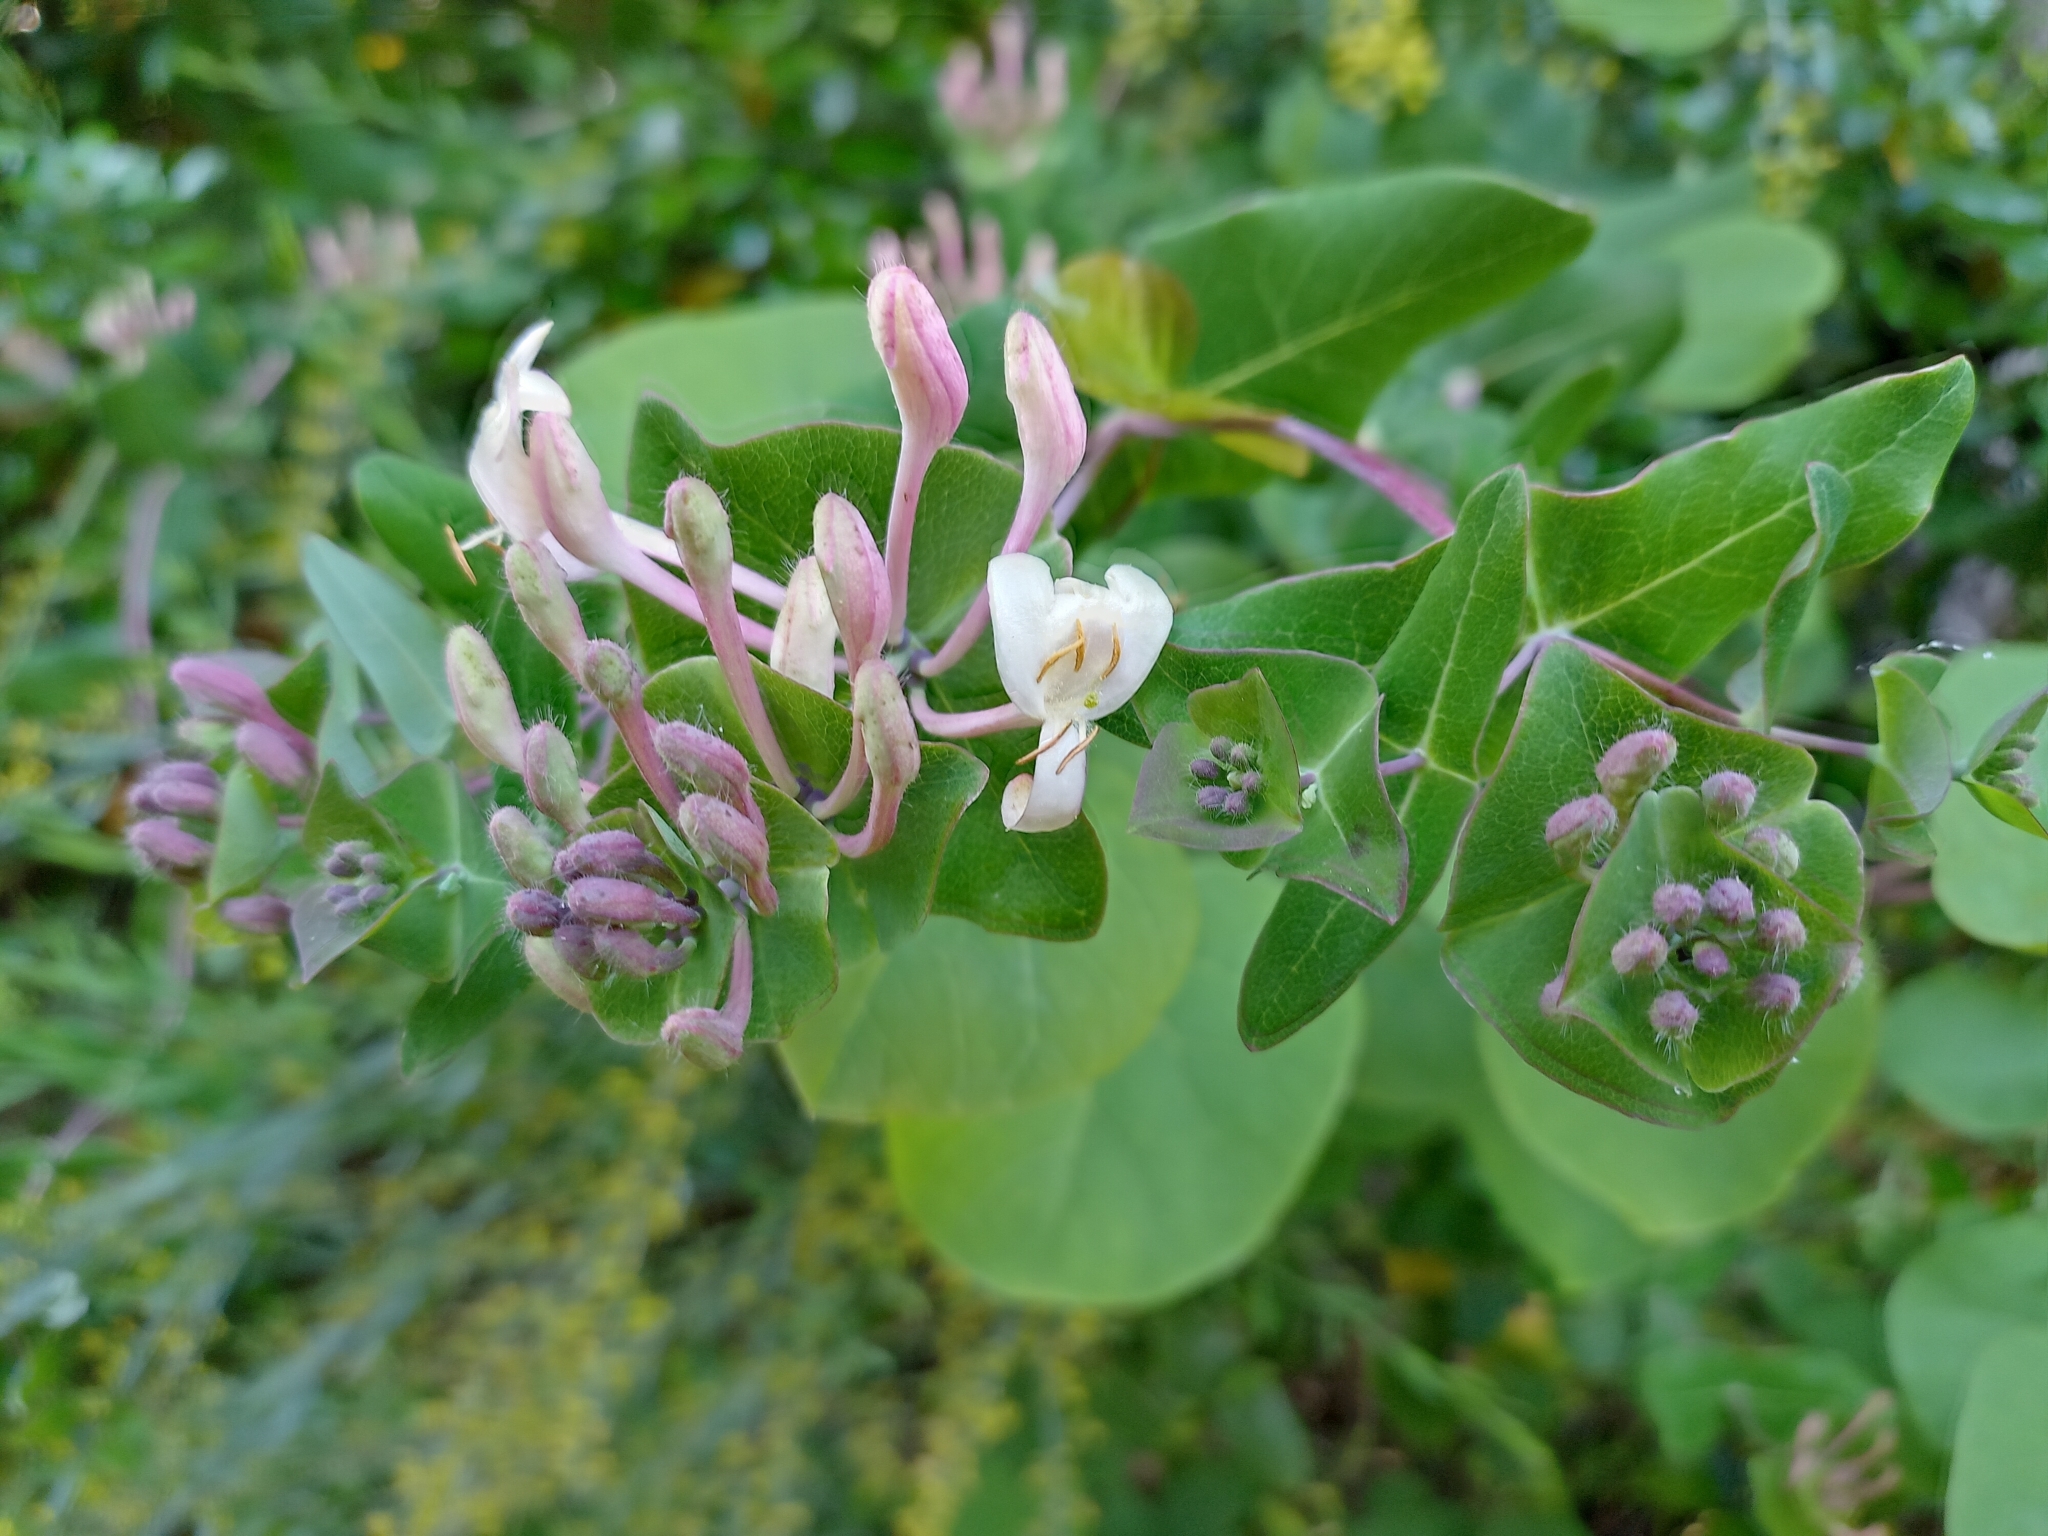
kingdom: Plantae
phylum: Tracheophyta
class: Magnoliopsida
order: Dipsacales
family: Caprifoliaceae
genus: Lonicera
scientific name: Lonicera implexa
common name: Minorca honeysuckle
